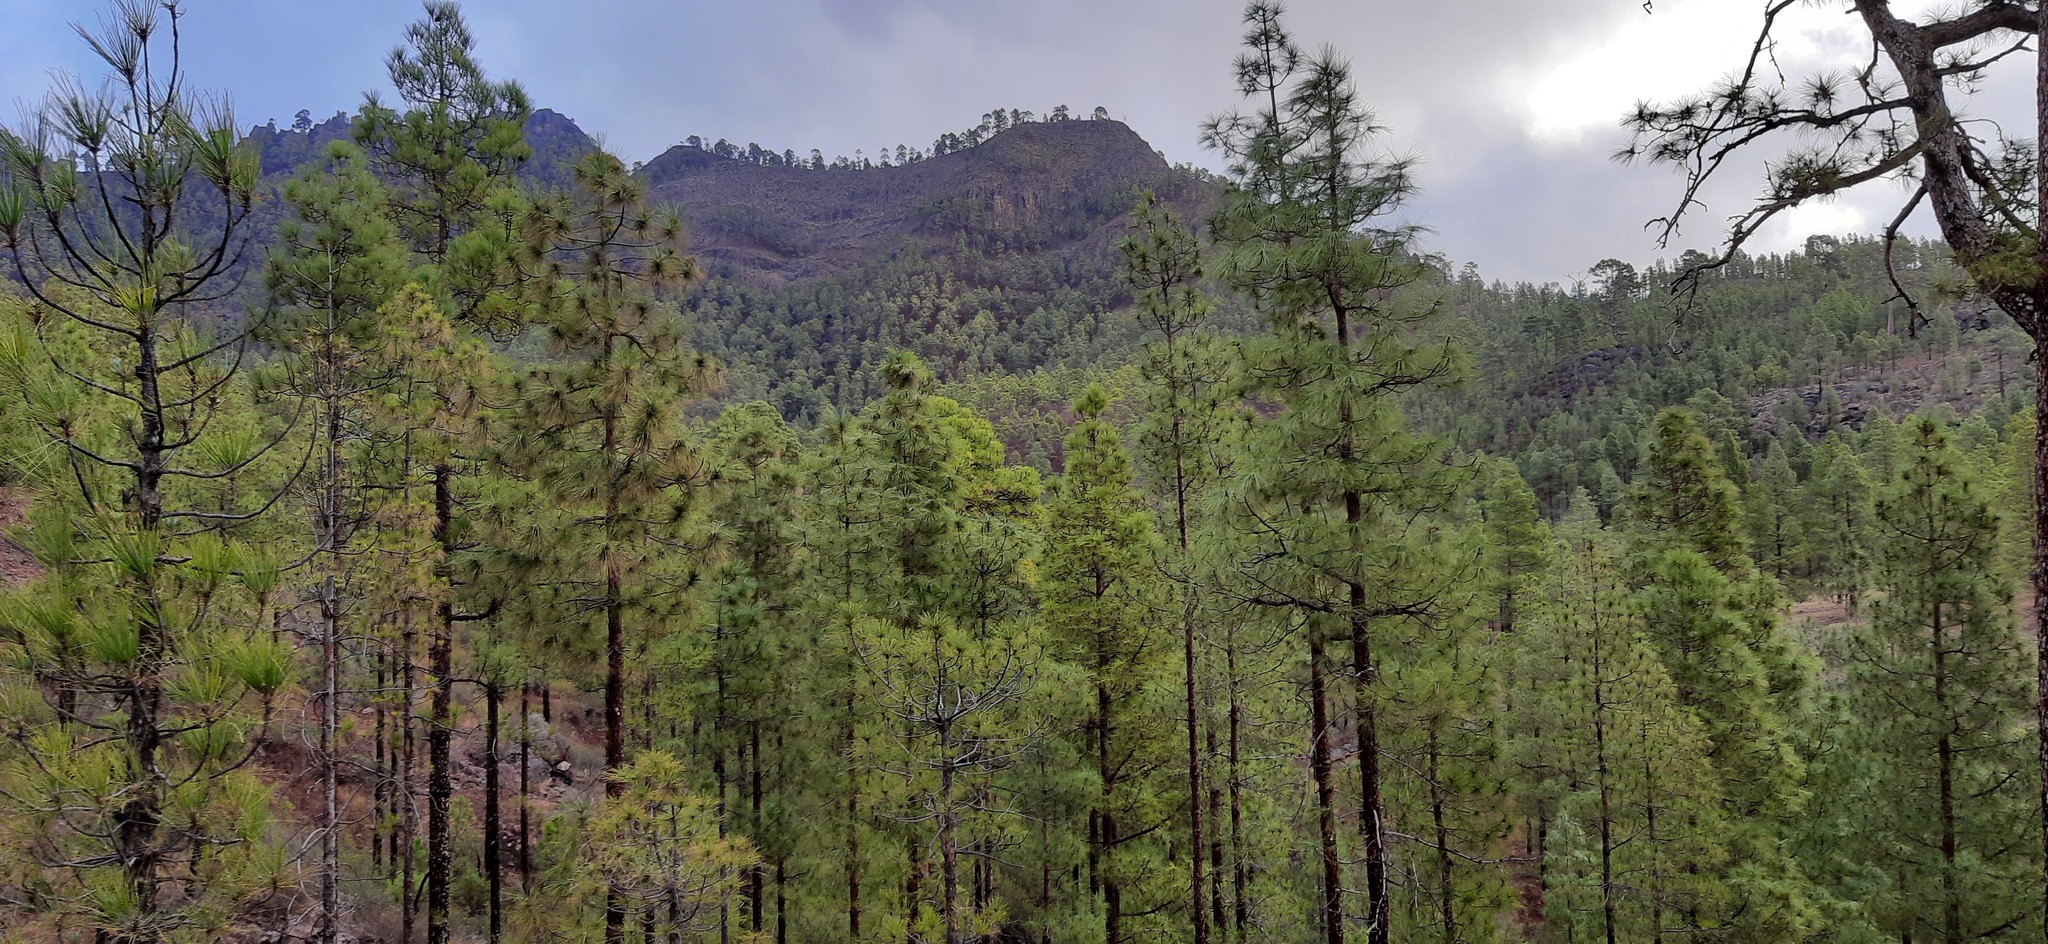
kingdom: Plantae
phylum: Tracheophyta
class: Pinopsida
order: Pinales
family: Pinaceae
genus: Pinus
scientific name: Pinus canariensis
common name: Canary islands pine
